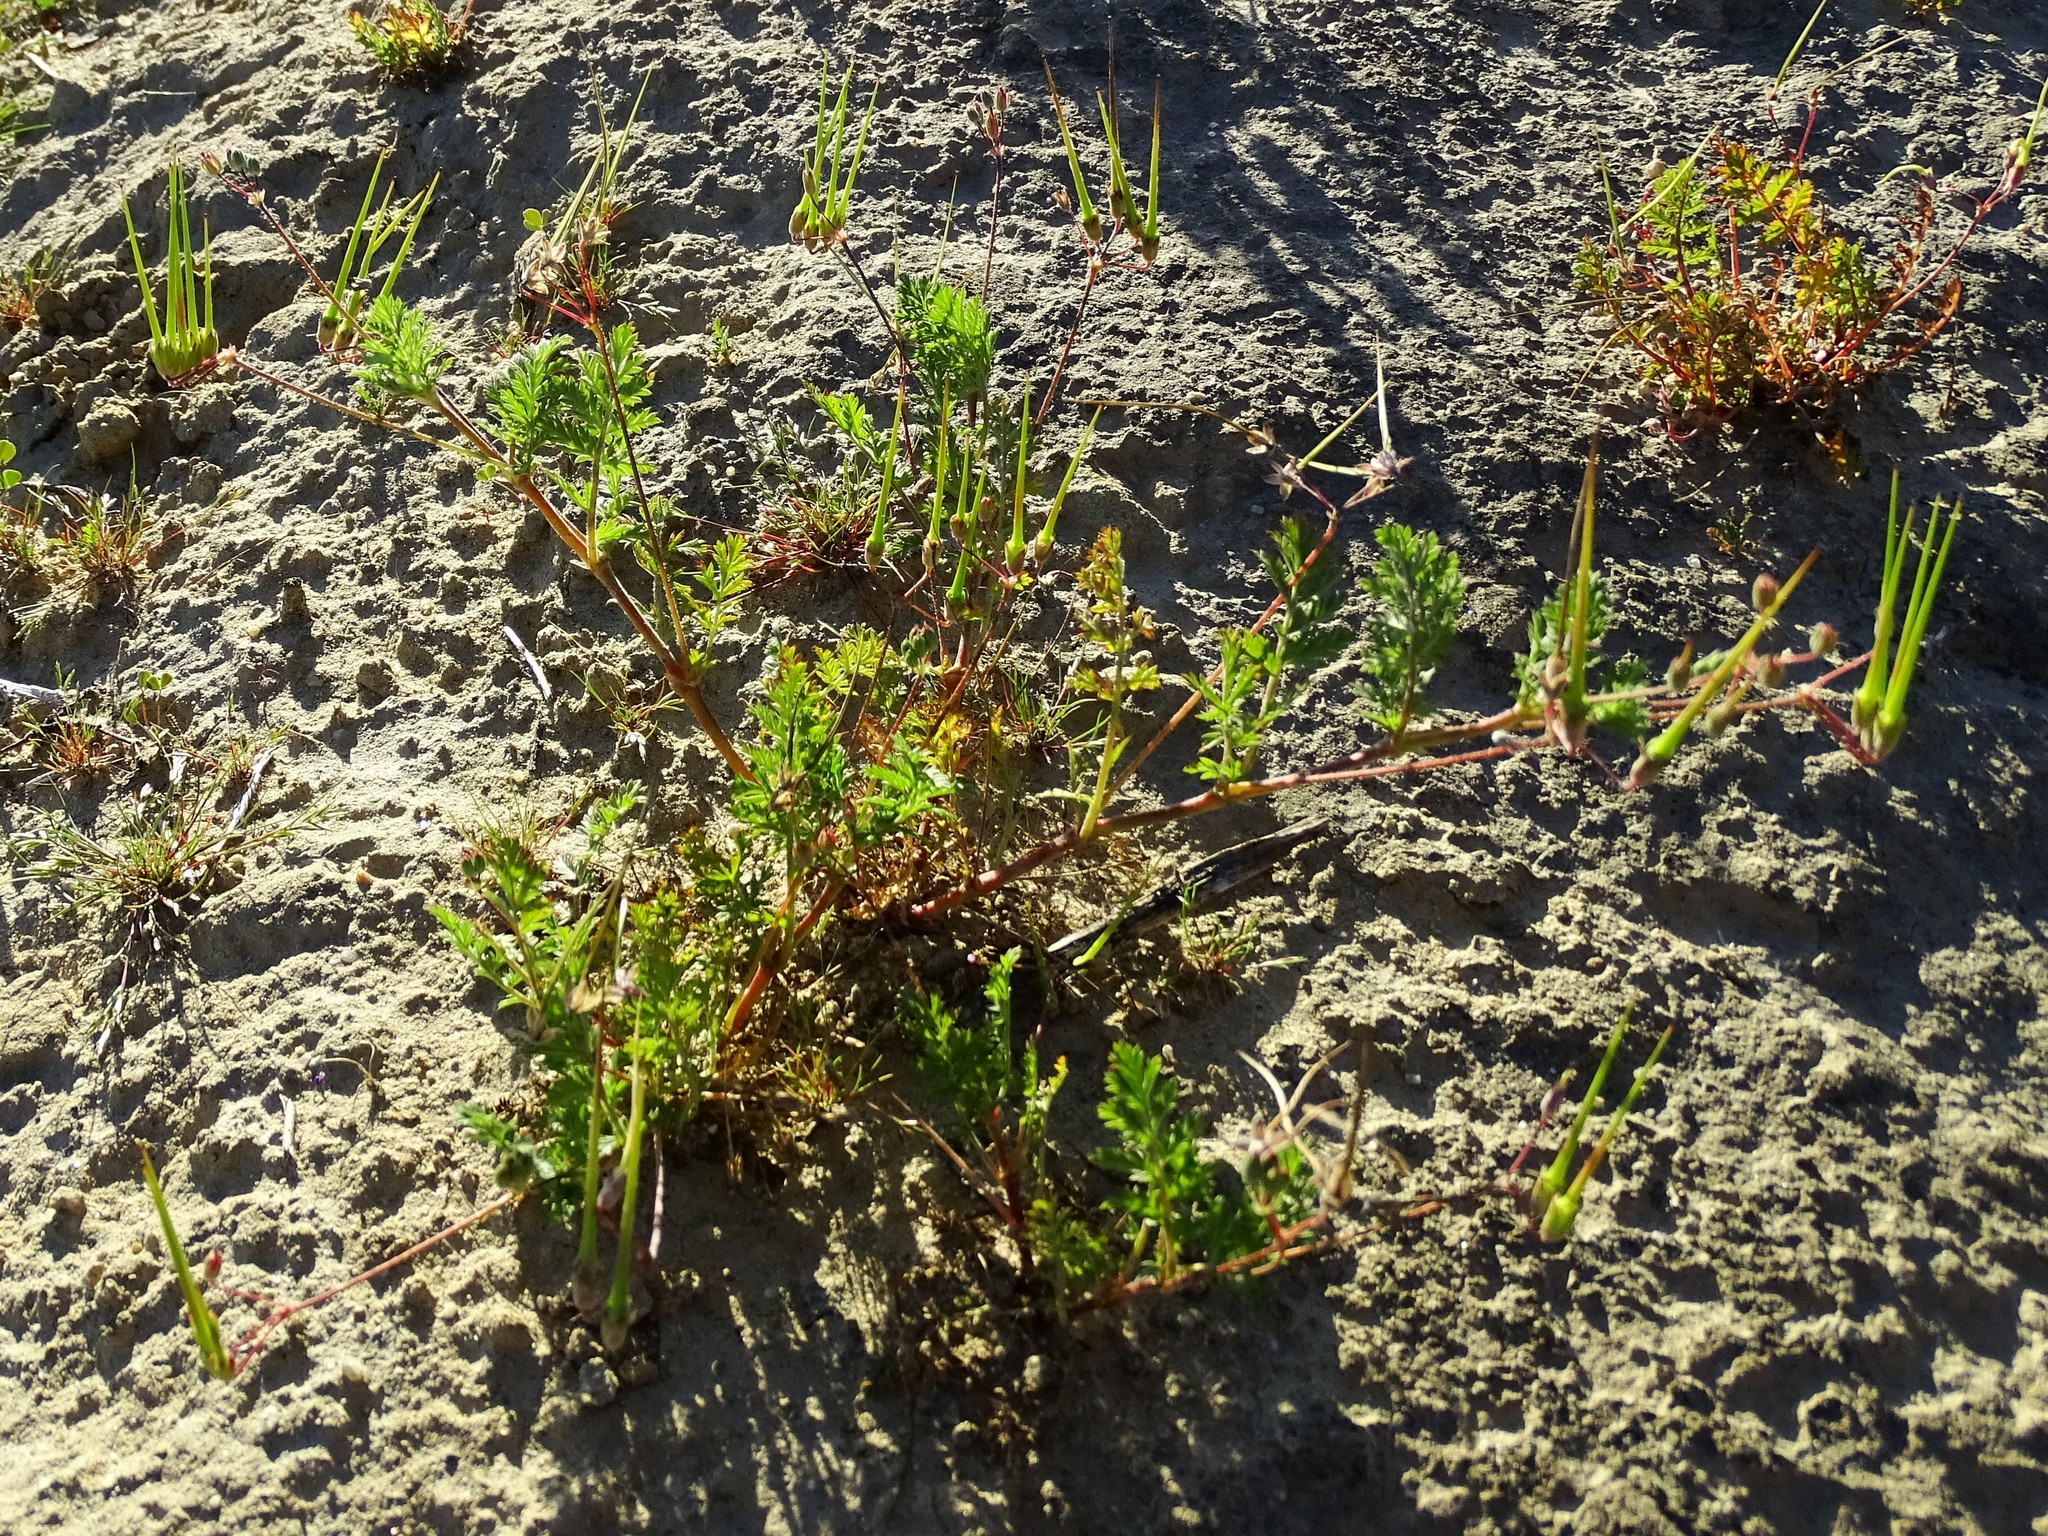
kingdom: Plantae
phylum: Tracheophyta
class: Magnoliopsida
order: Geraniales
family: Geraniaceae
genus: Erodium
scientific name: Erodium cicutarium
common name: Common stork's-bill
